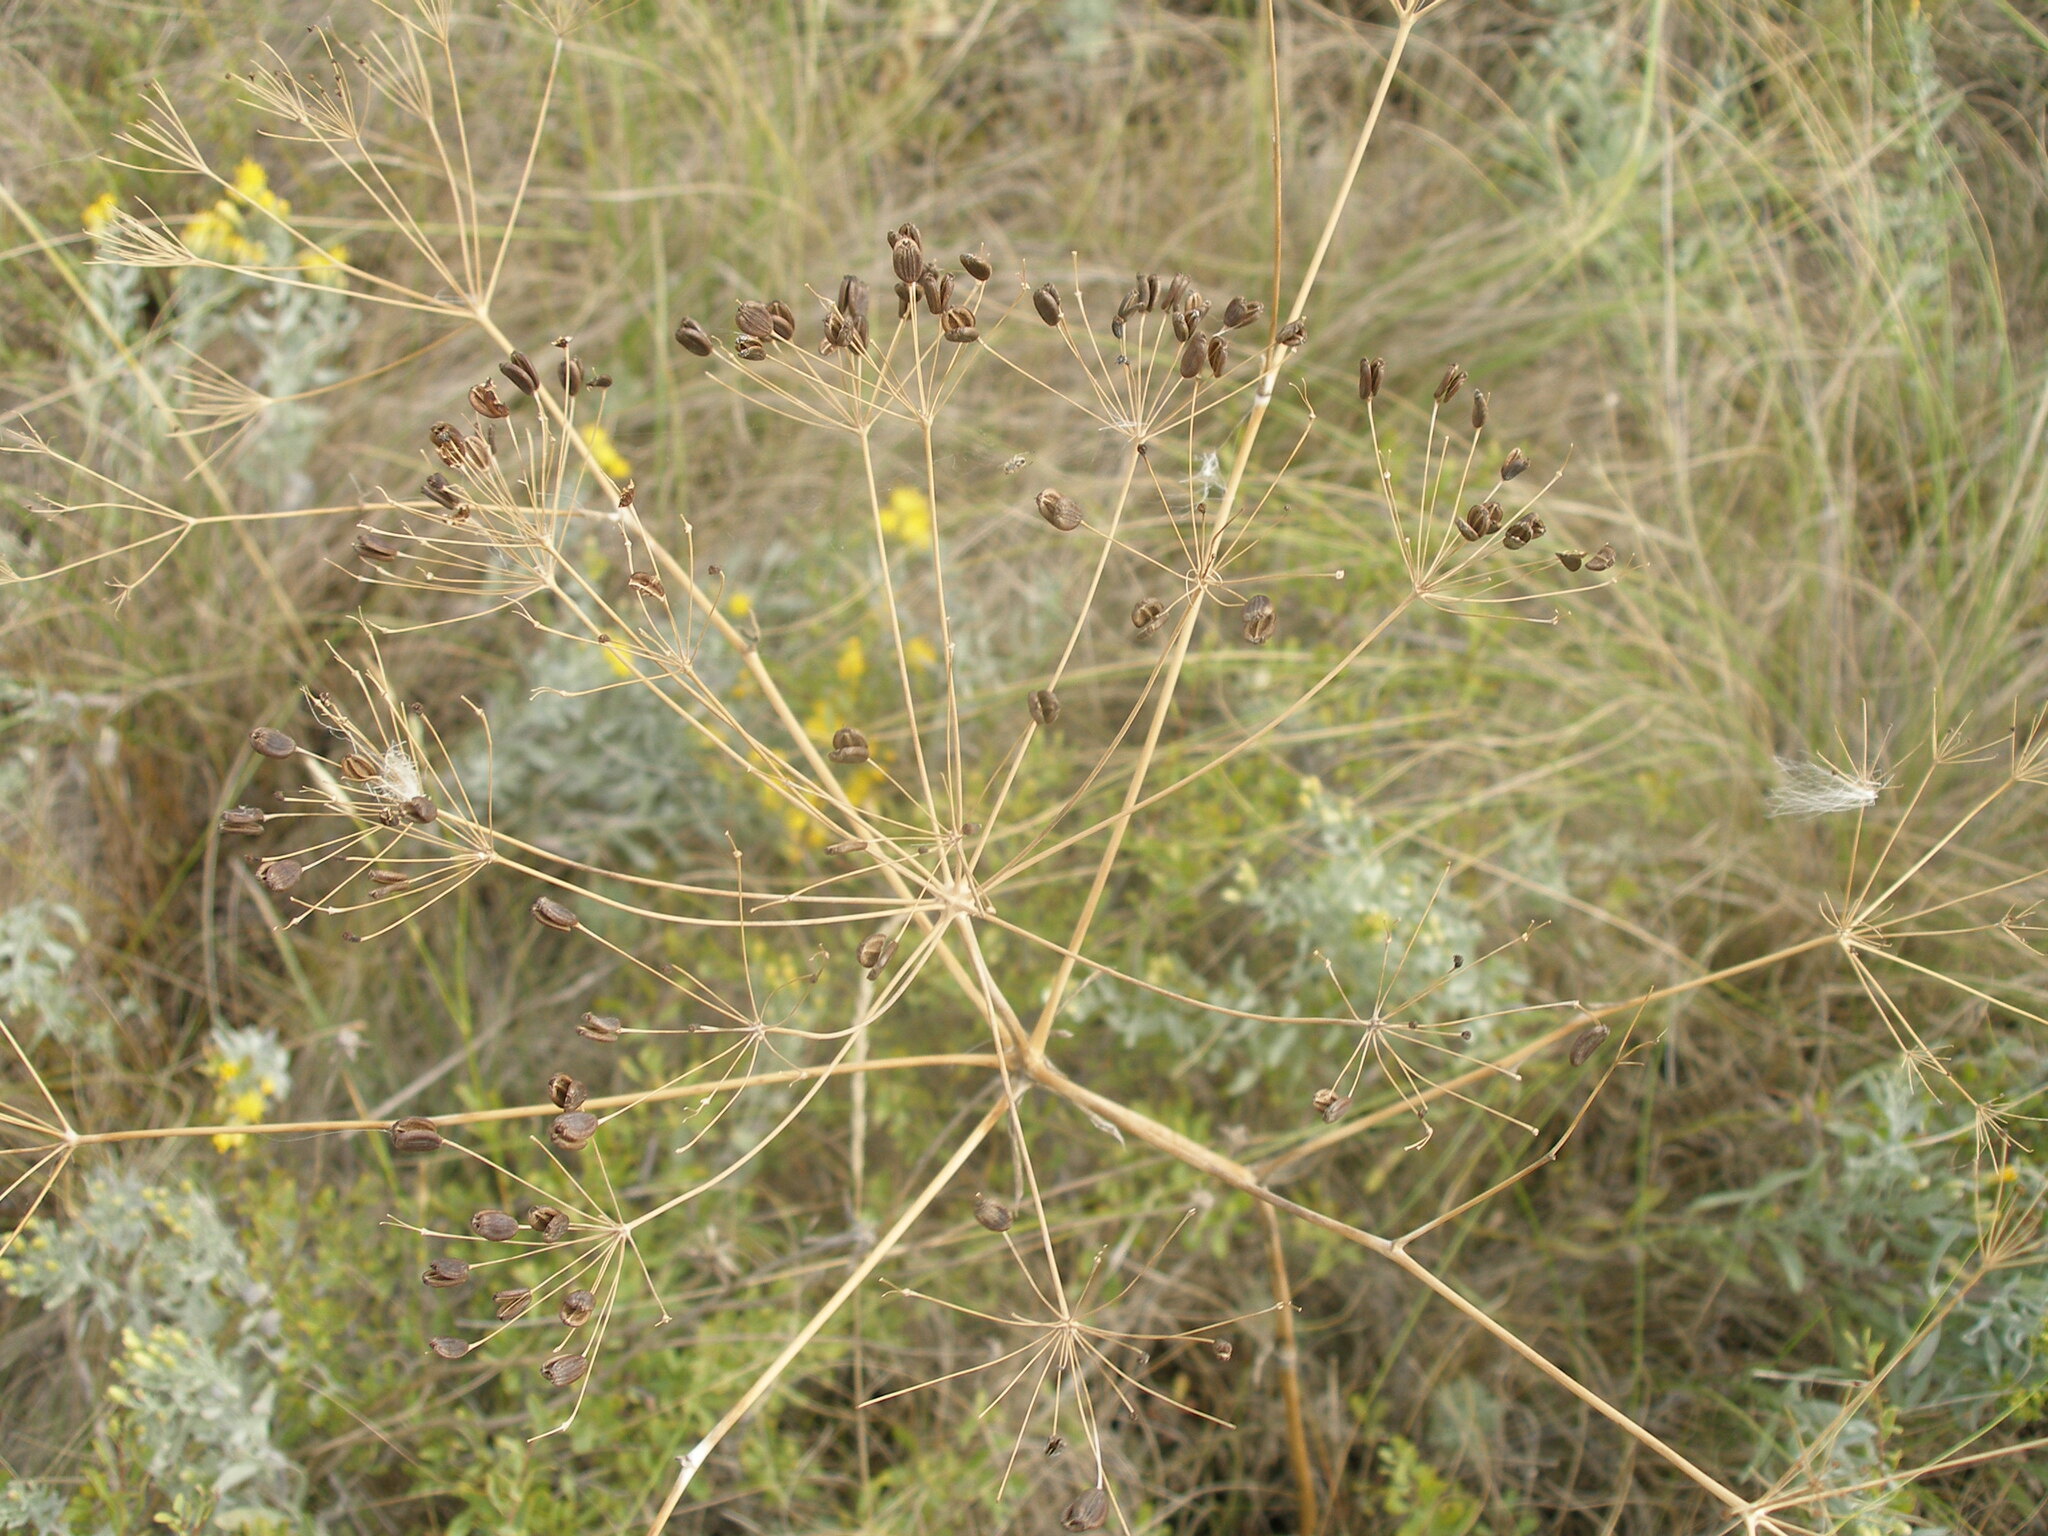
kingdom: Plantae
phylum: Tracheophyta
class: Magnoliopsida
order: Apiales
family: Apiaceae
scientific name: Apiaceae
